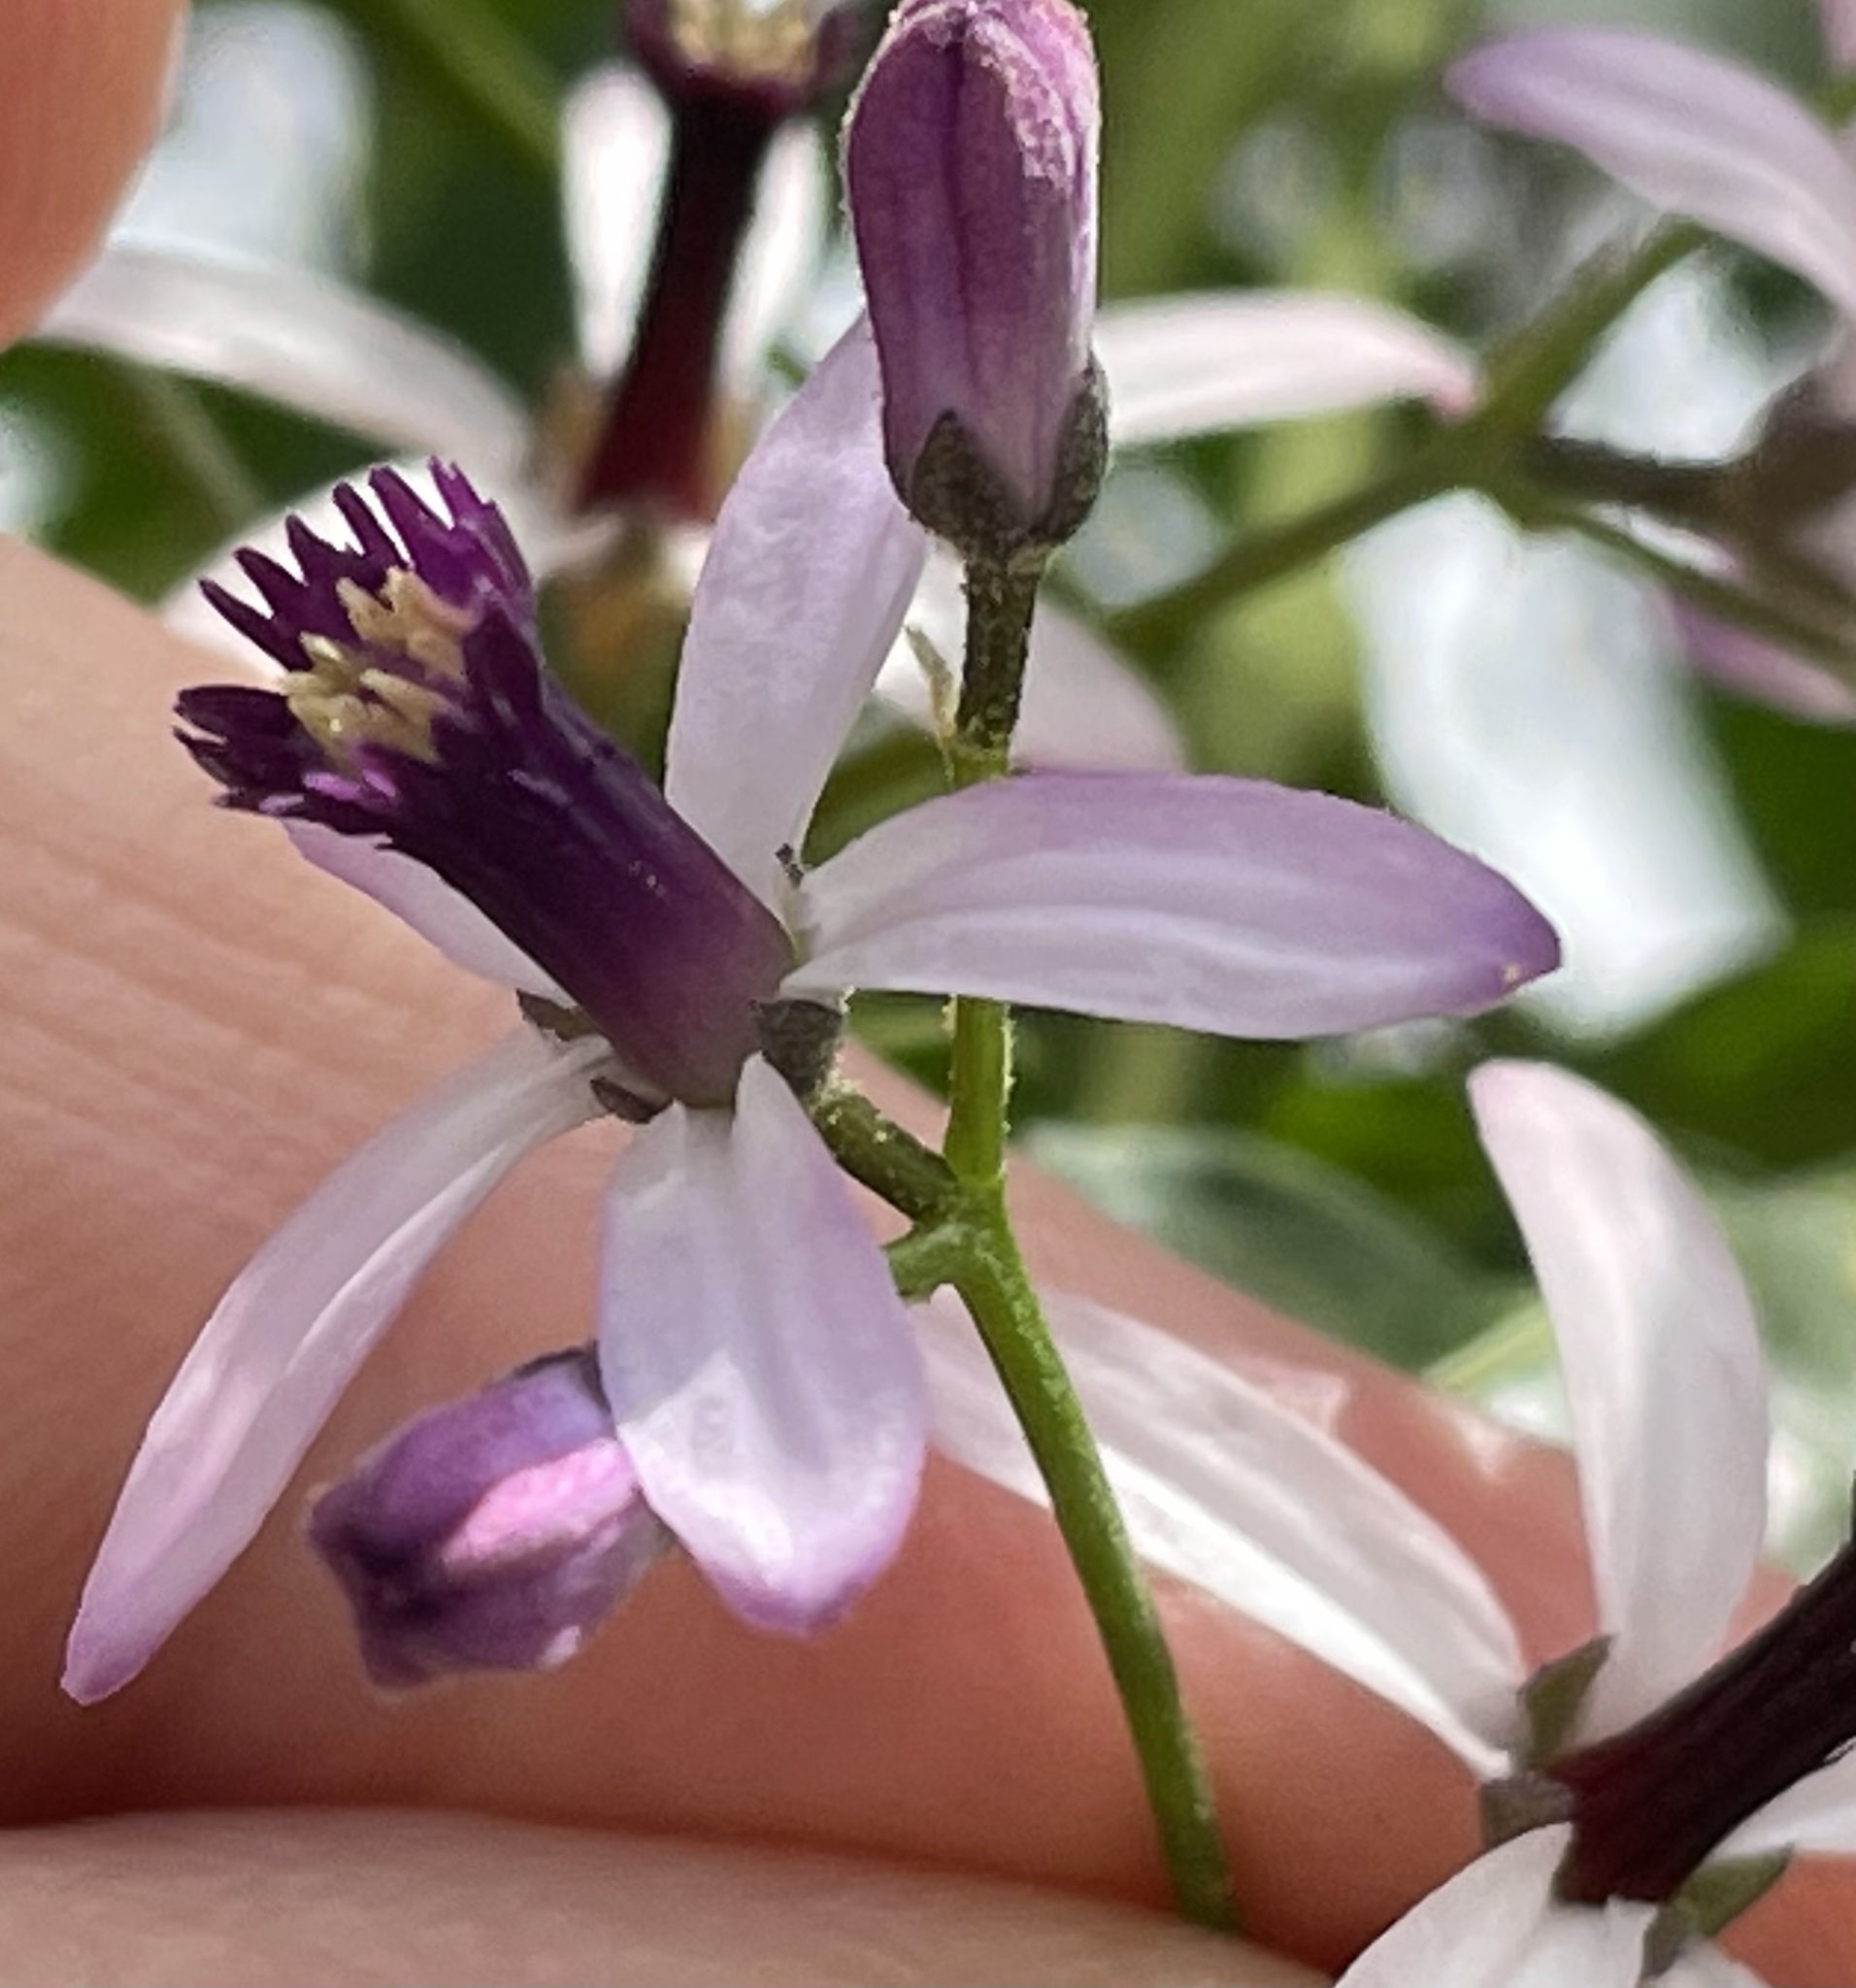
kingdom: Plantae
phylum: Tracheophyta
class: Magnoliopsida
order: Sapindales
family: Meliaceae
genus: Melia
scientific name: Melia azedarach
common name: Chinaberrytree
